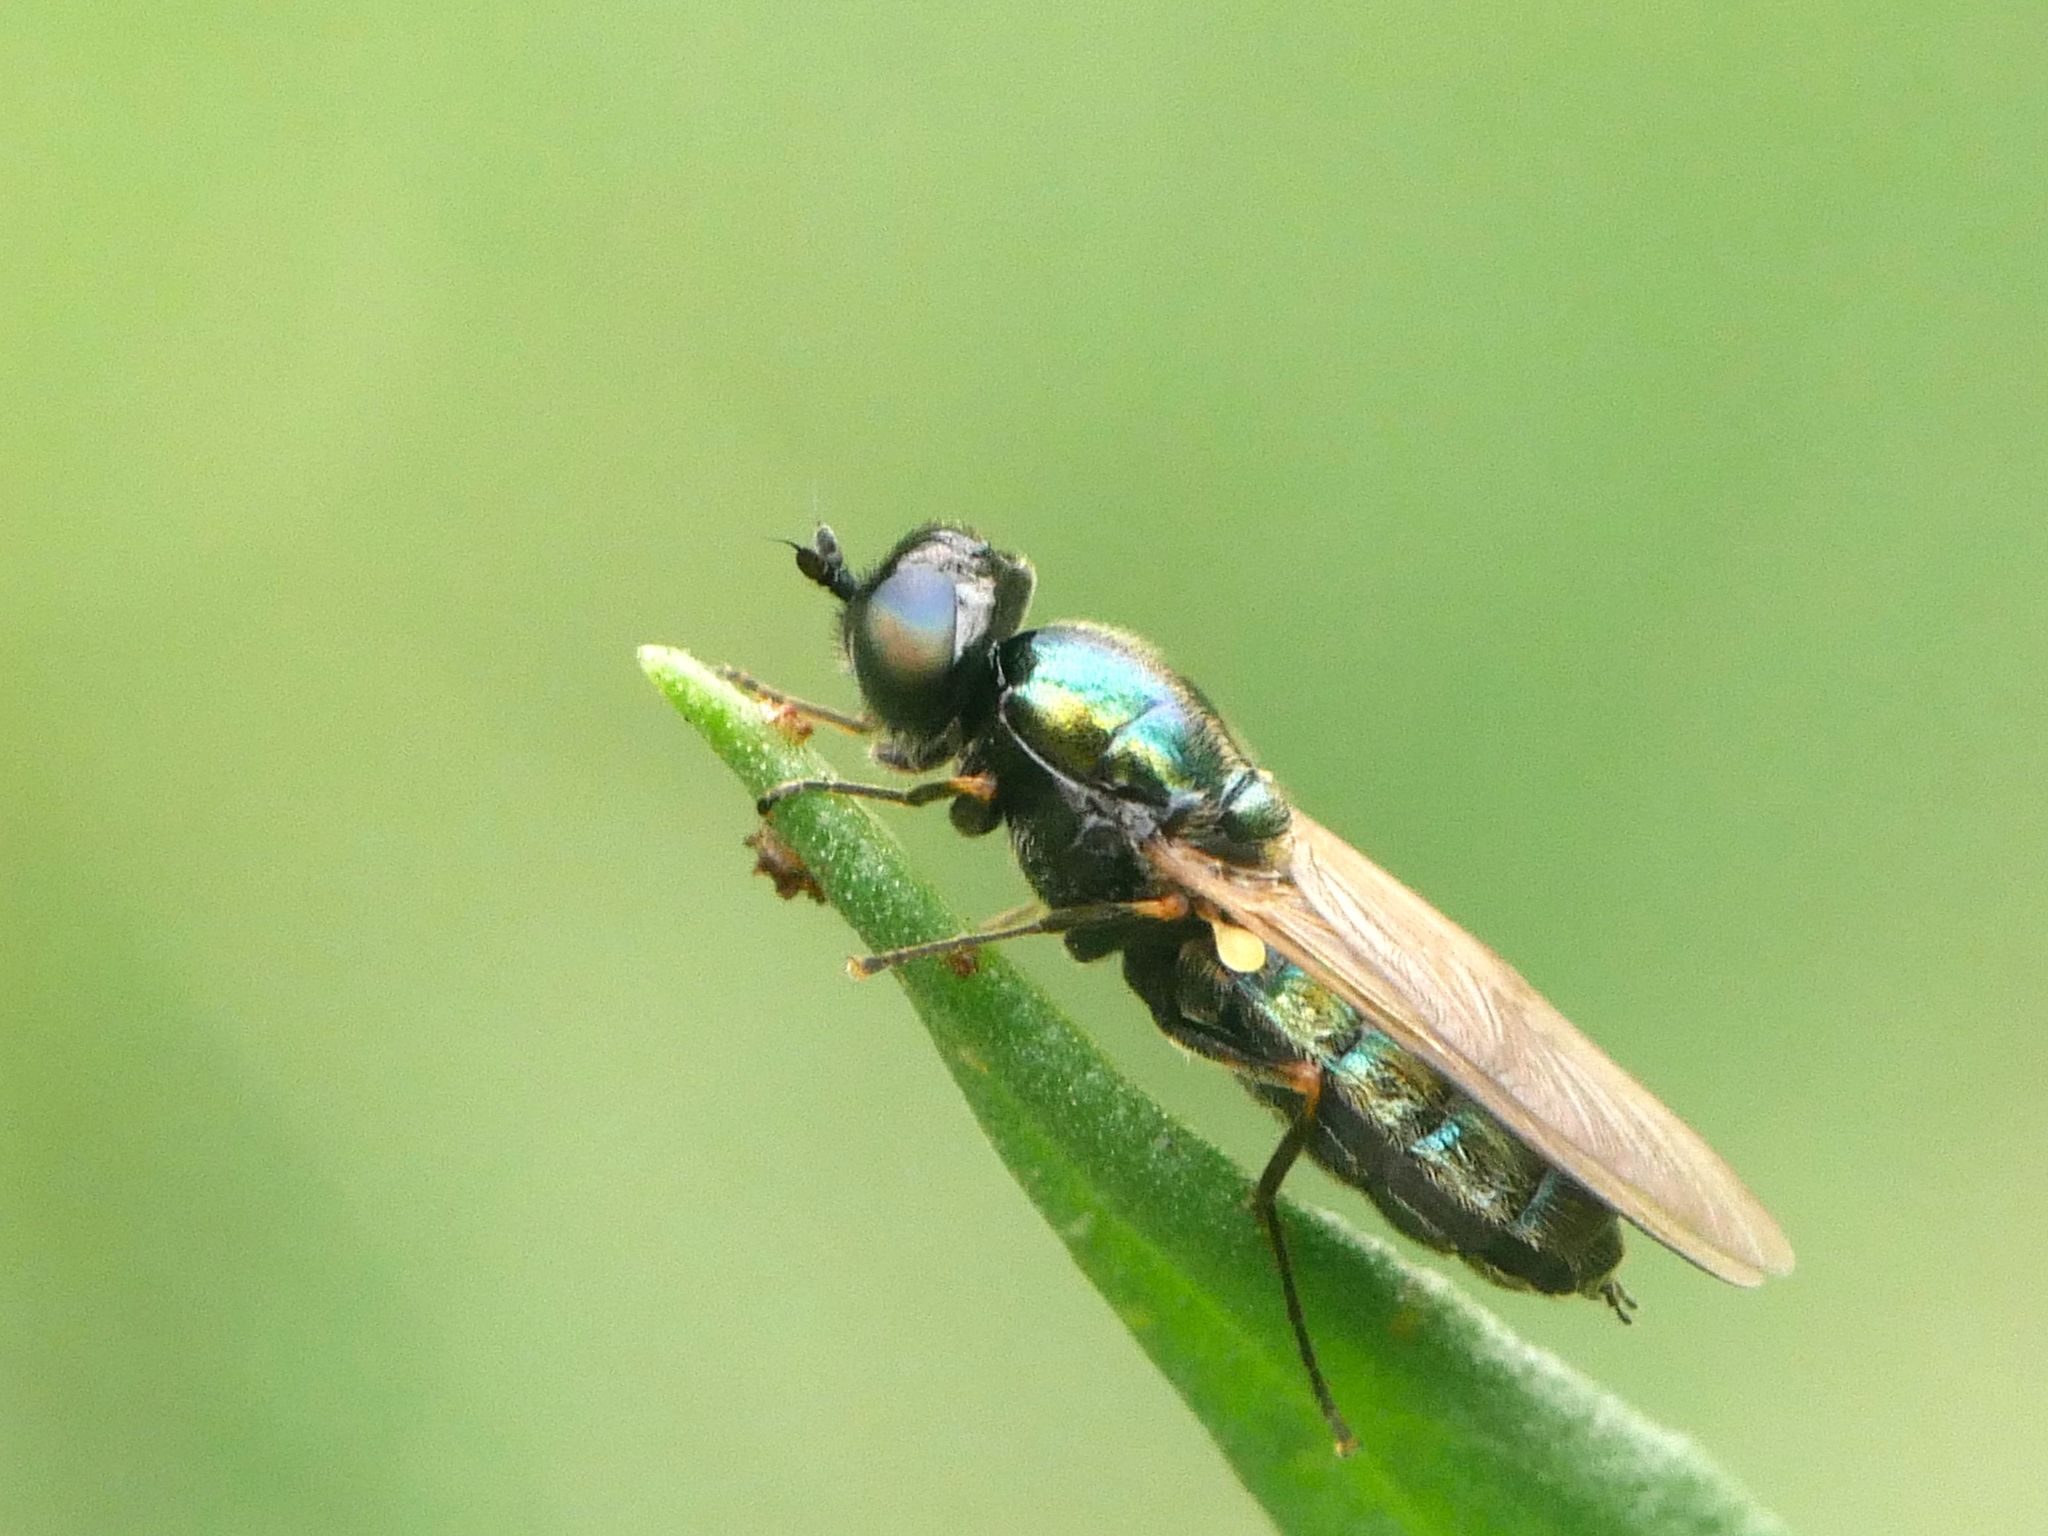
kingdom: Animalia
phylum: Arthropoda
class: Insecta
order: Diptera
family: Stratiomyidae
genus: Chloromyia
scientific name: Chloromyia formosa
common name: Soldier fly
